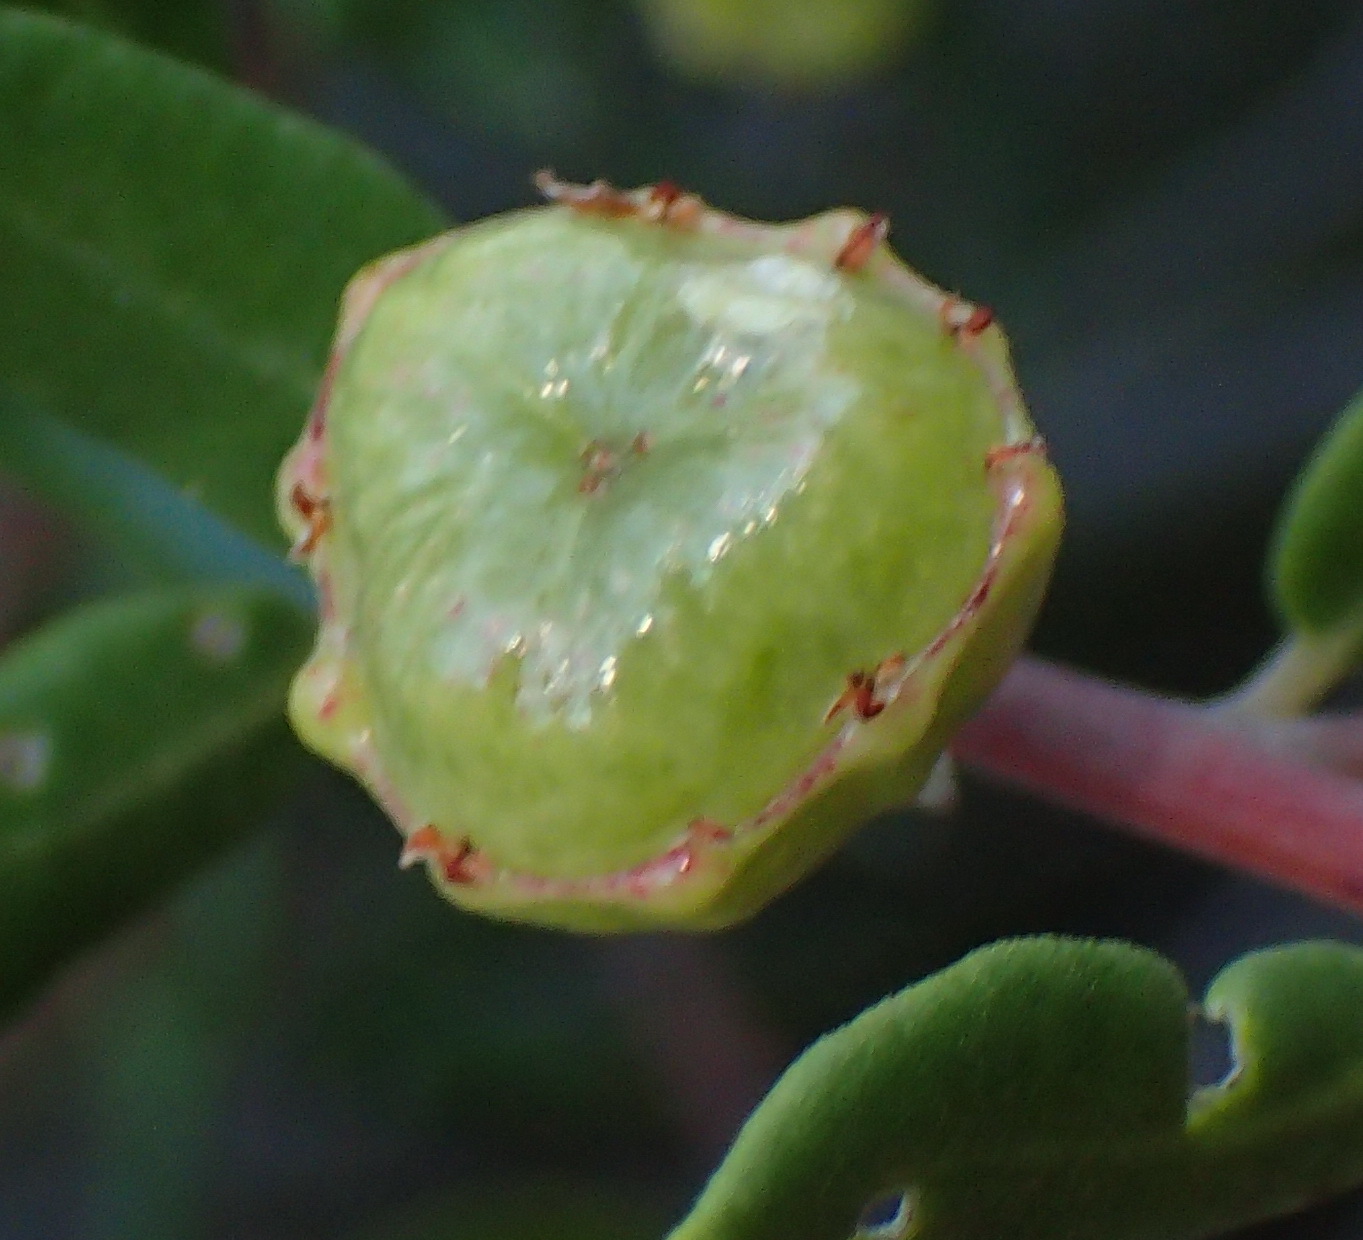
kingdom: Plantae
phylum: Tracheophyta
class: Magnoliopsida
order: Rosales
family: Rhamnaceae
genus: Phylica
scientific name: Phylica oleifolia
